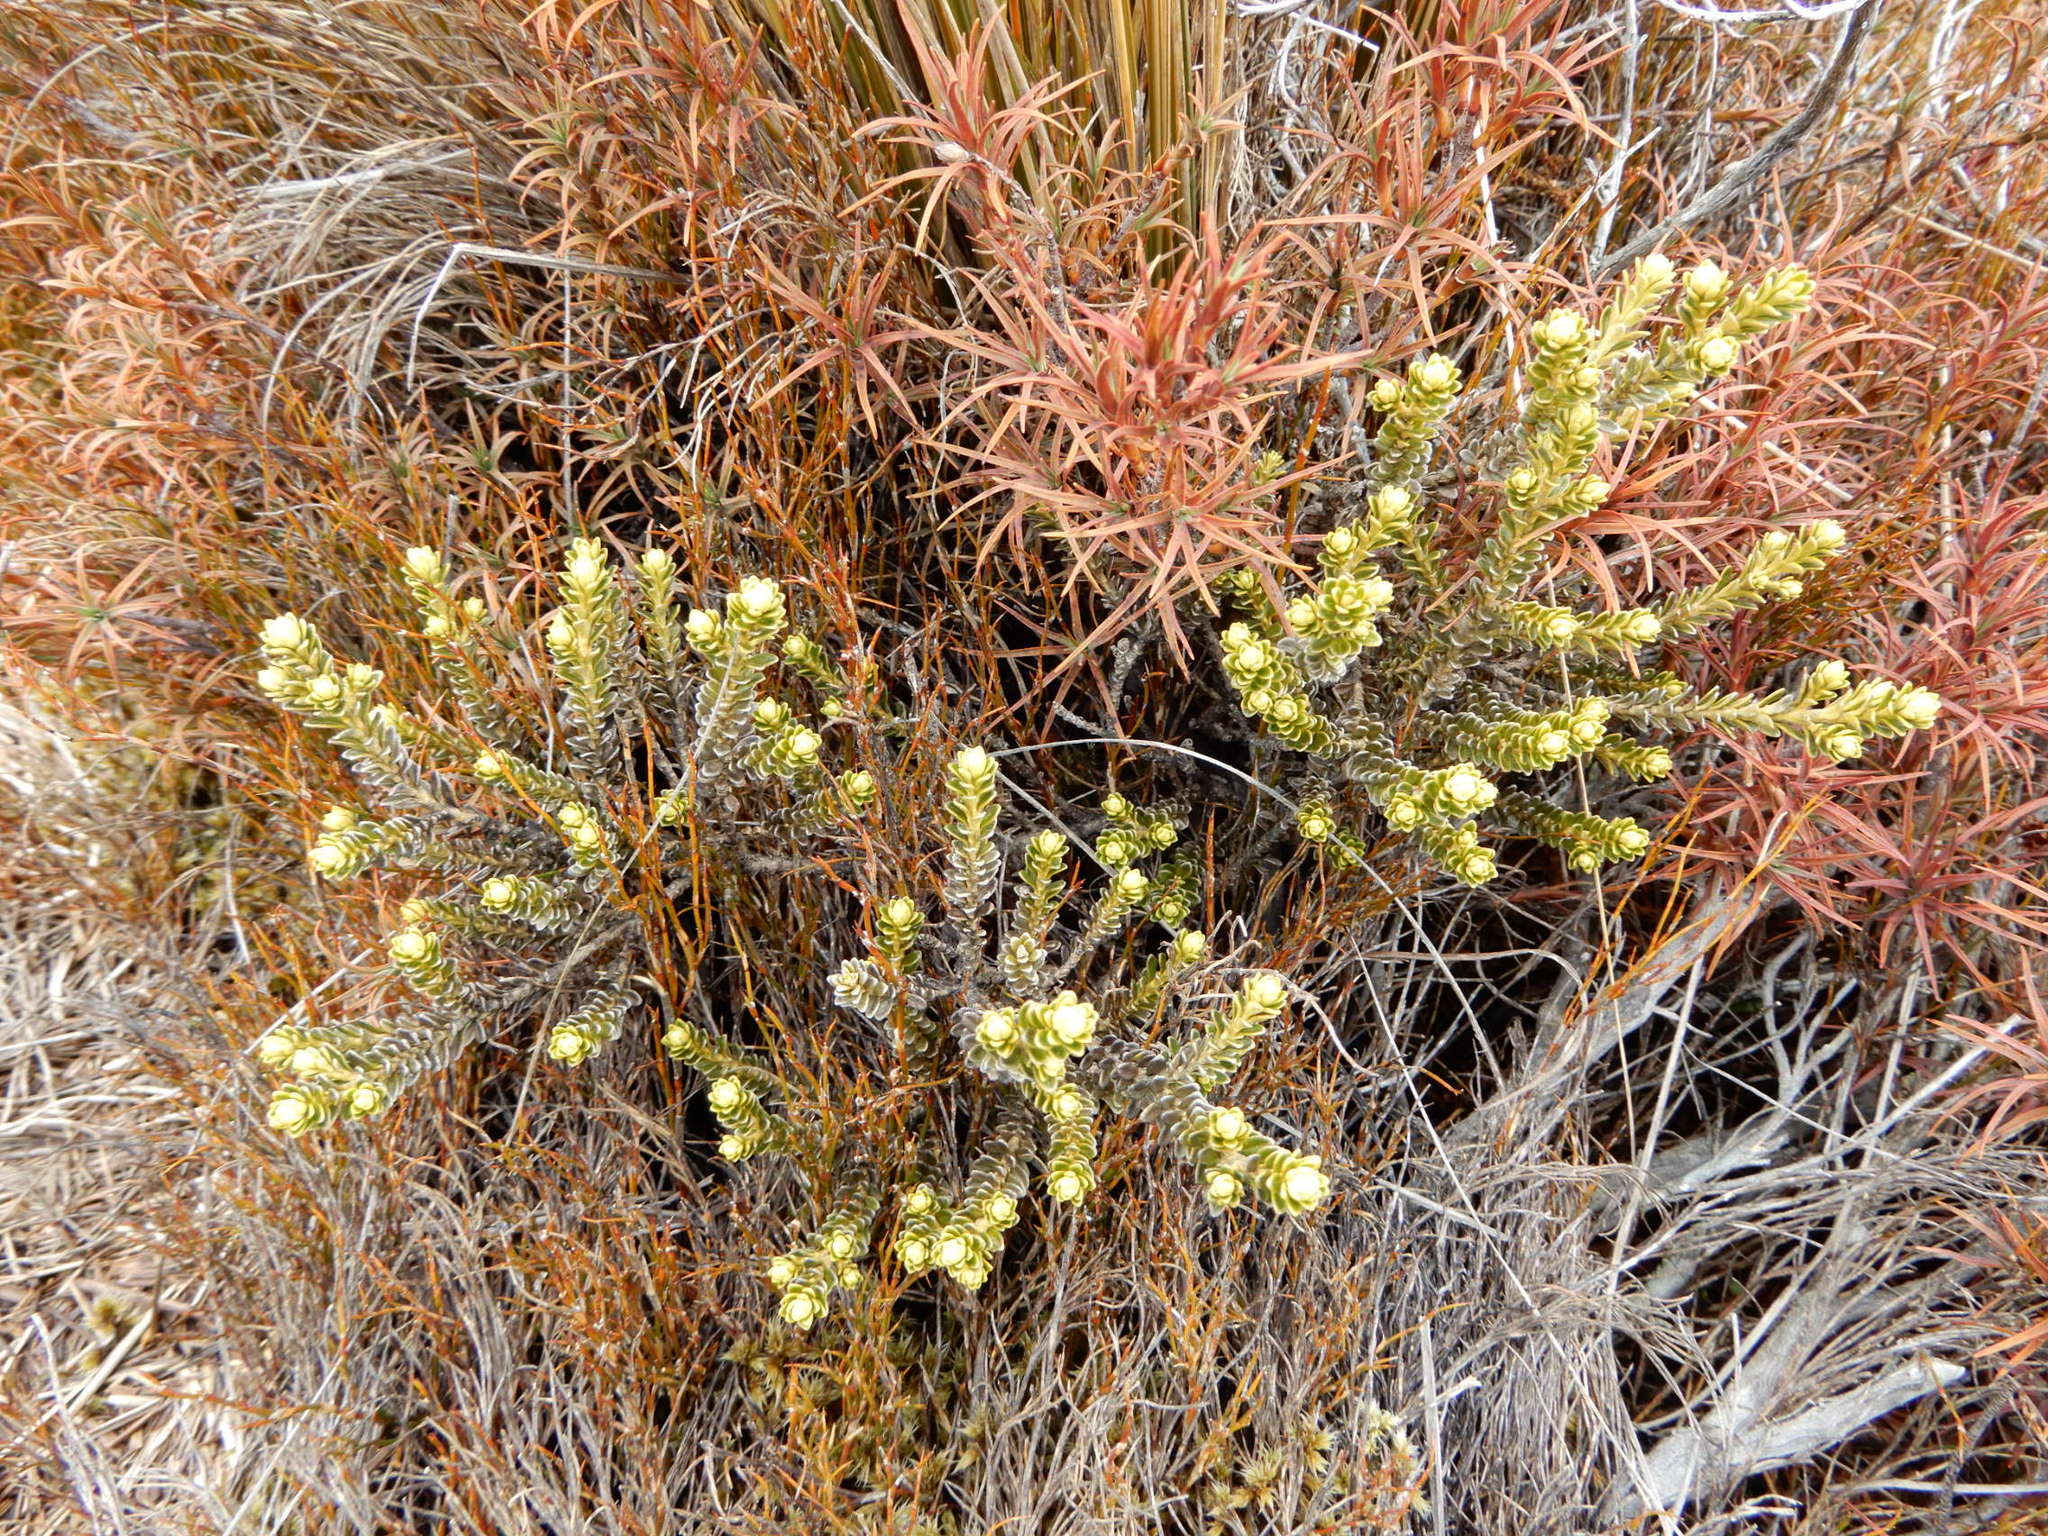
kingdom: Plantae
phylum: Tracheophyta
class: Magnoliopsida
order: Asterales
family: Asteraceae
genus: Olearia
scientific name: Olearia nummularifolia
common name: Sticky daisybush
